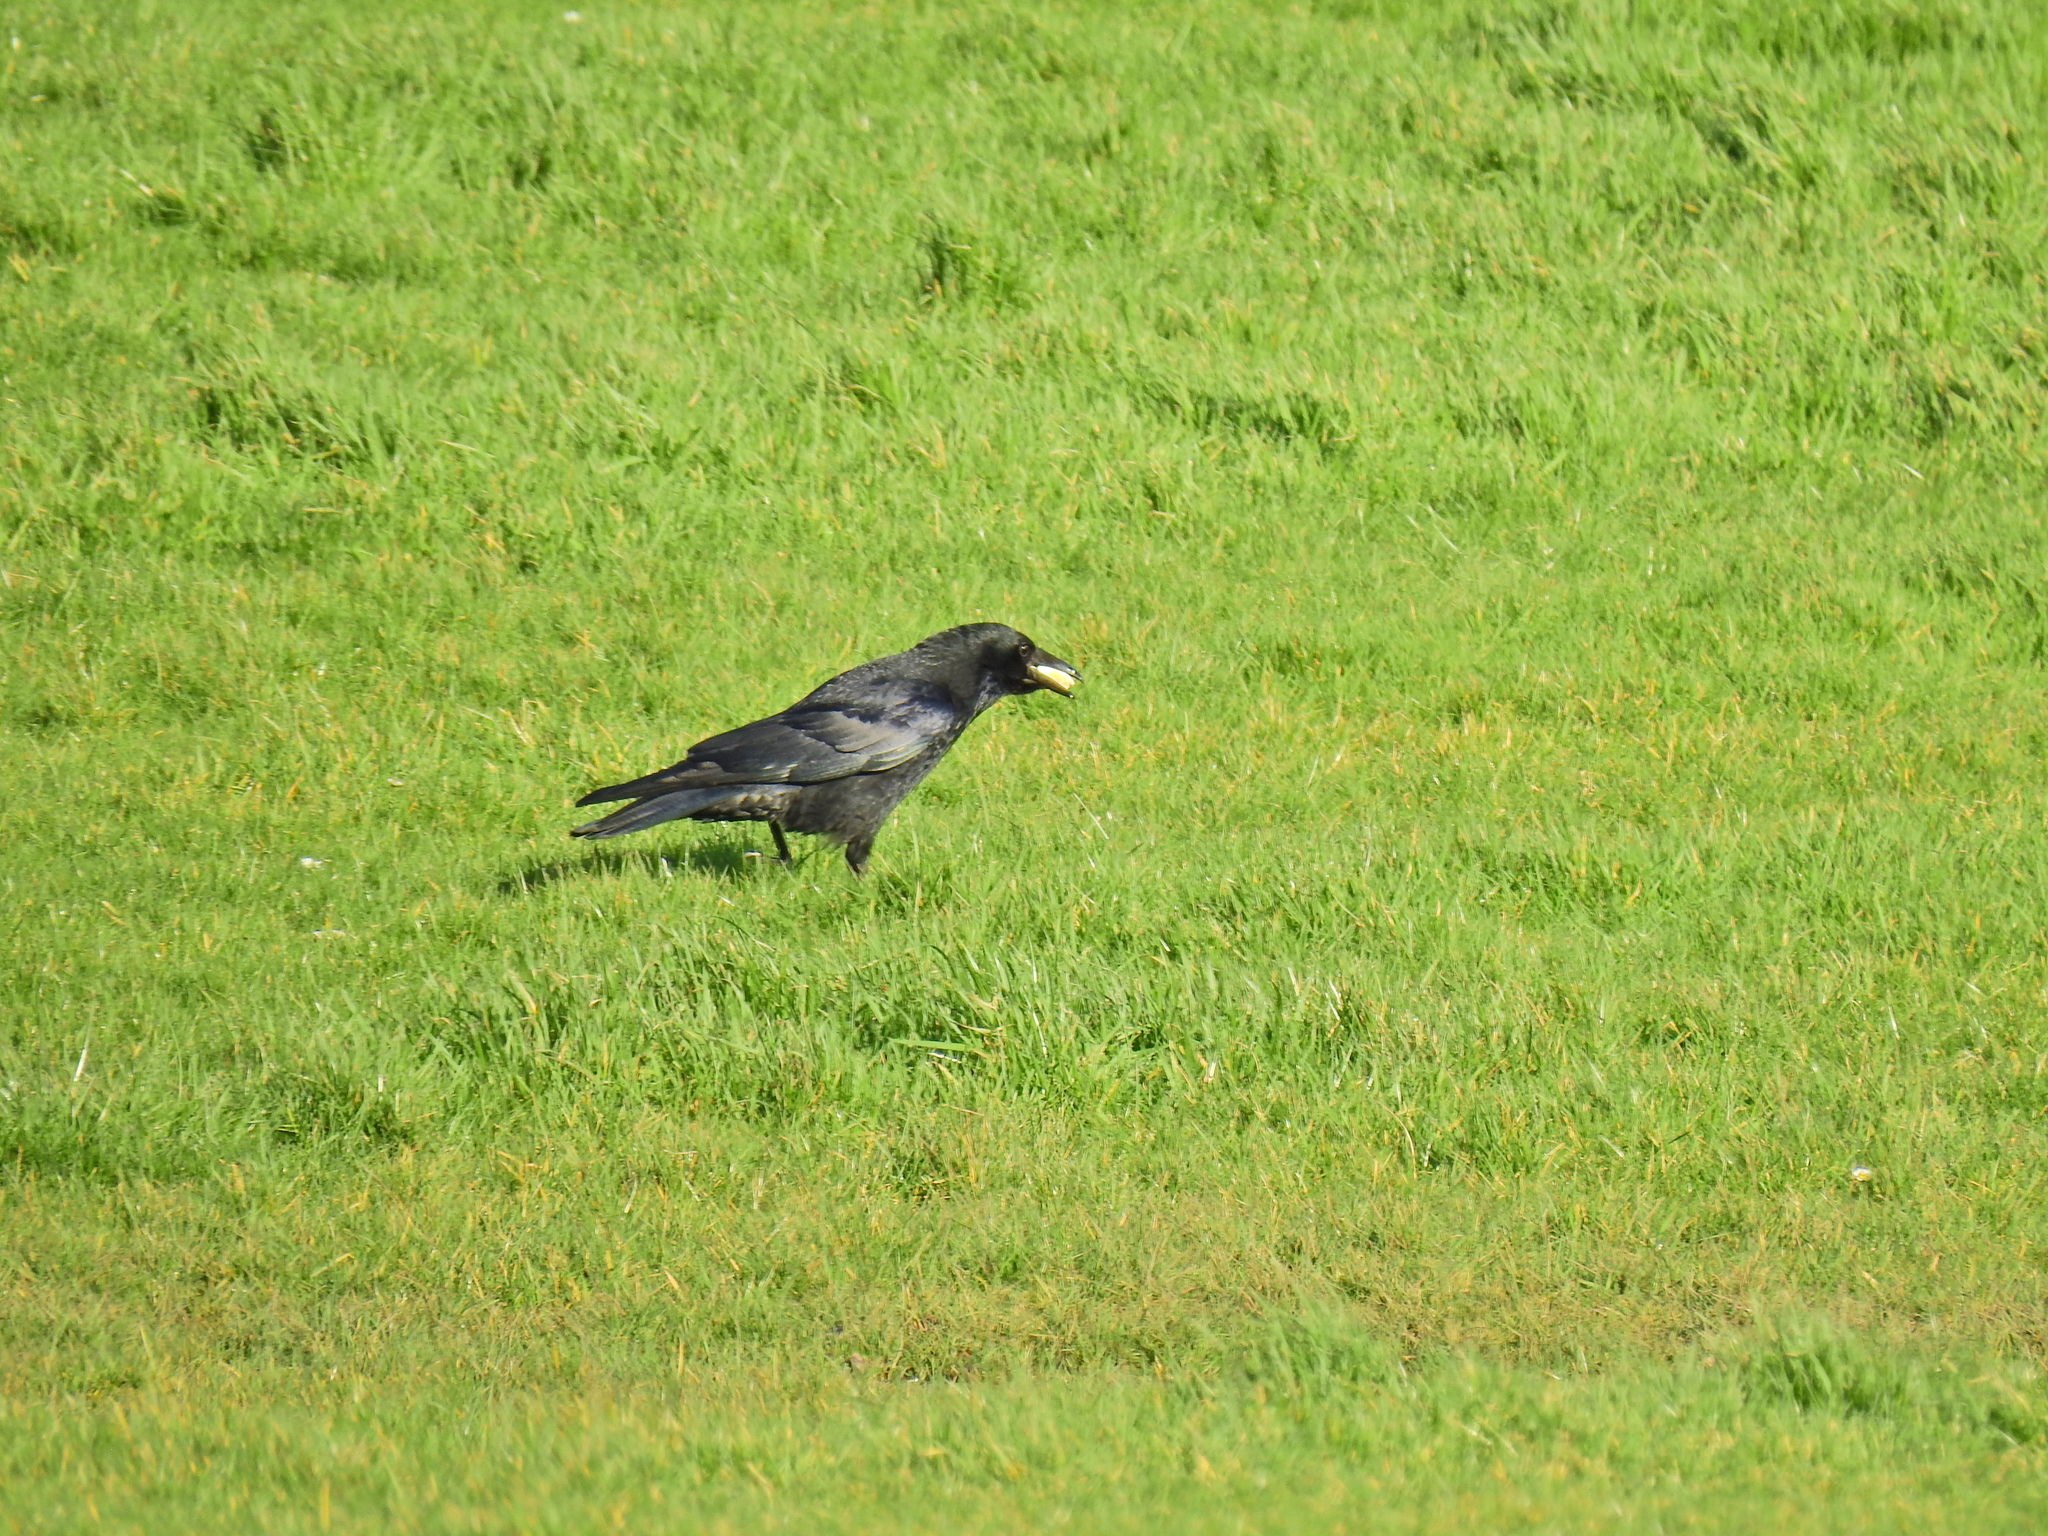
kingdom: Animalia
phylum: Chordata
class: Aves
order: Passeriformes
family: Corvidae
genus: Corvus
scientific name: Corvus corone
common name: Carrion crow
